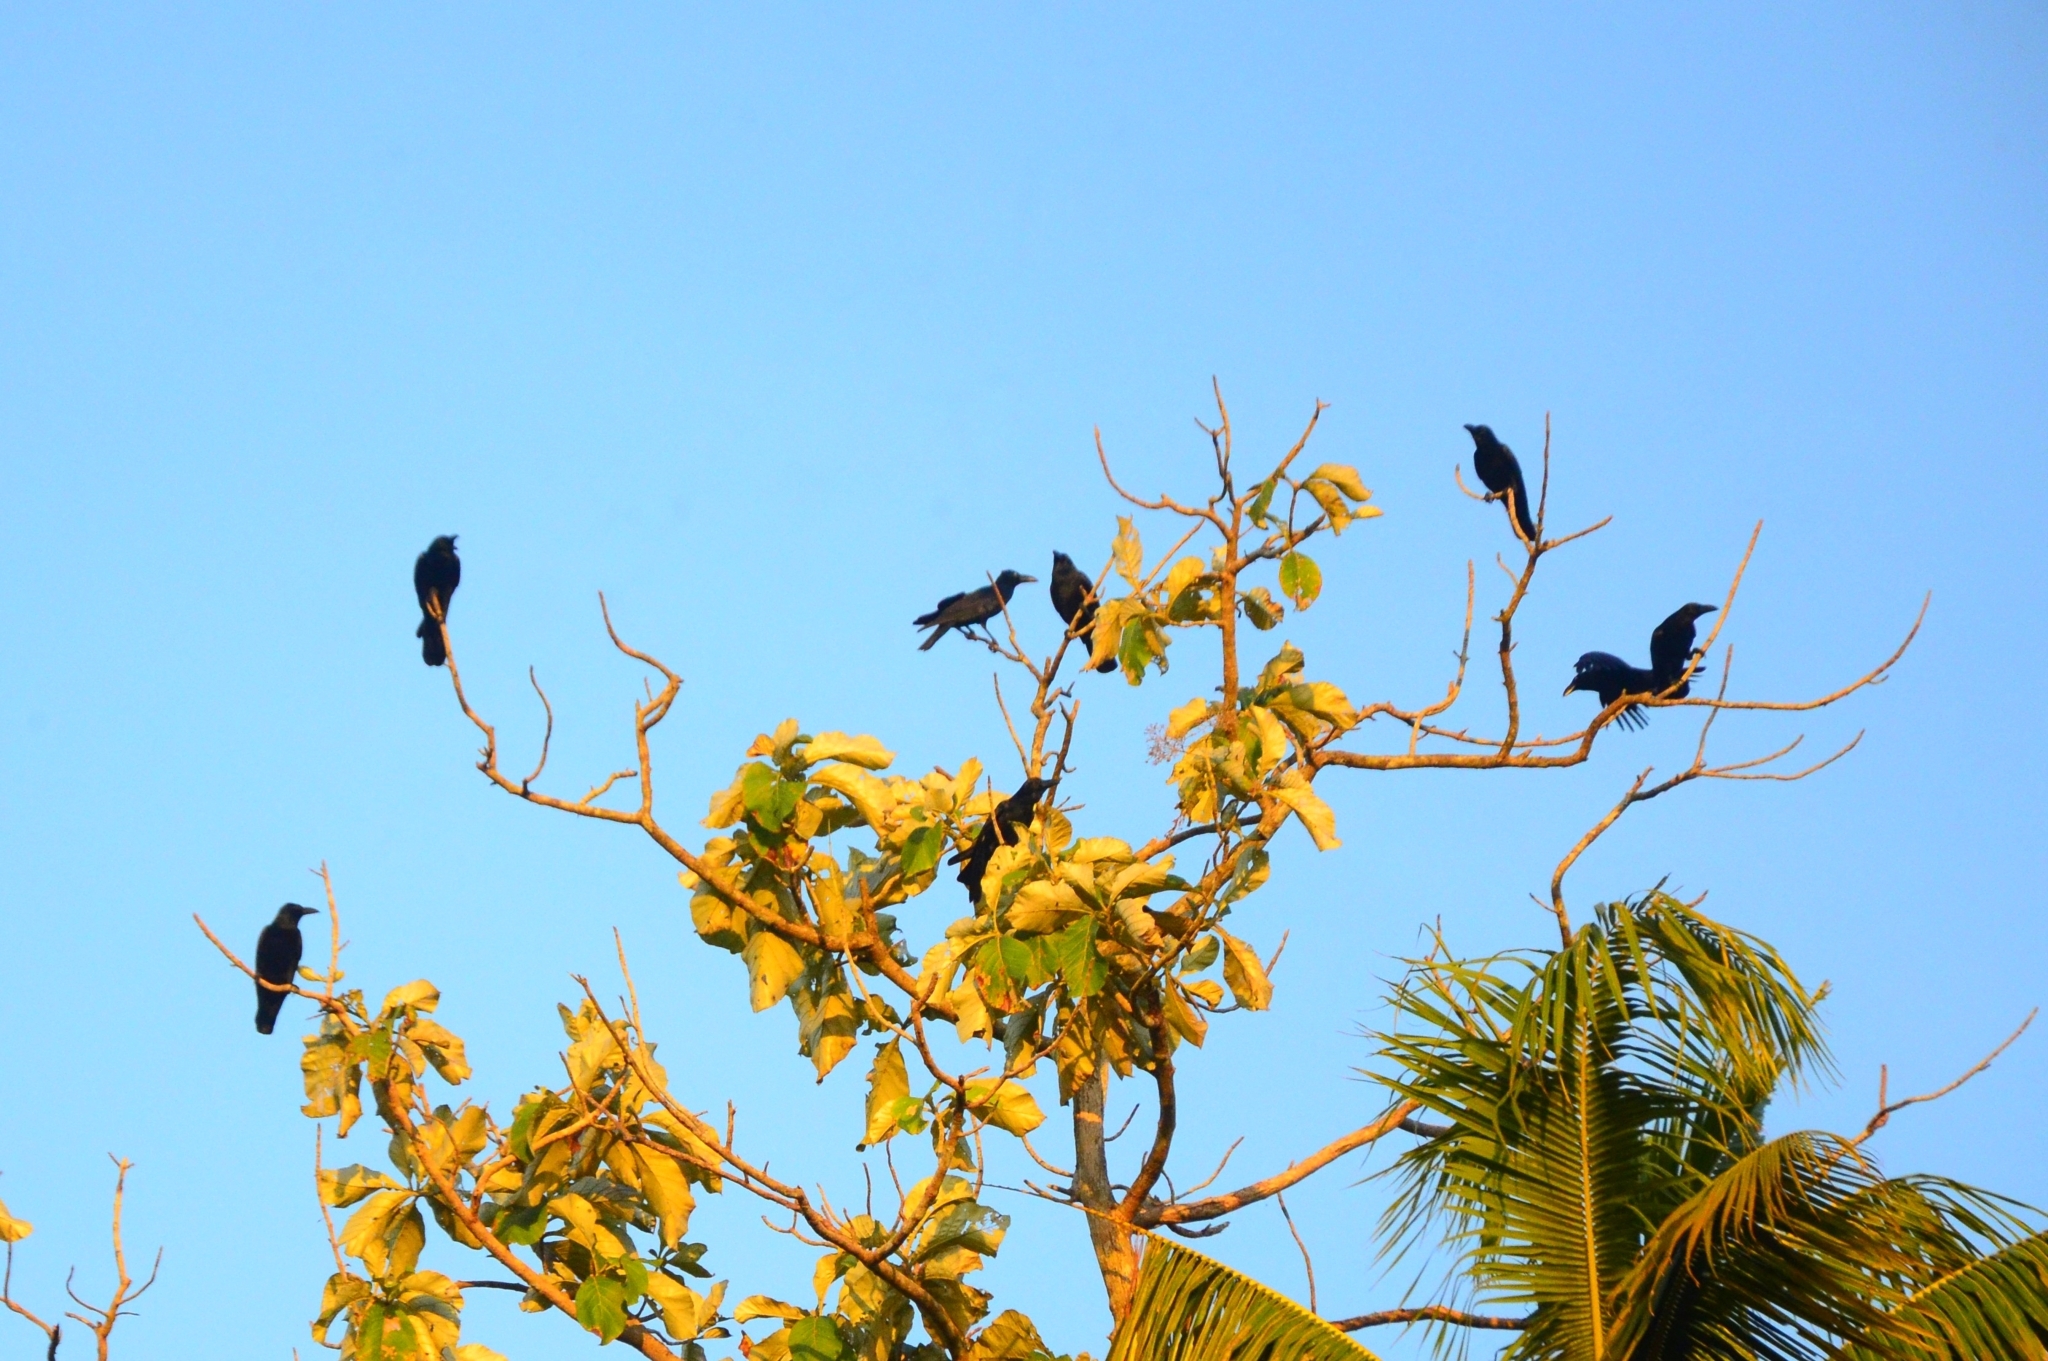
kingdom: Animalia
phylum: Chordata
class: Aves
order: Passeriformes
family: Corvidae
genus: Corvus
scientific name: Corvus macrorhynchos
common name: Large-billed crow
